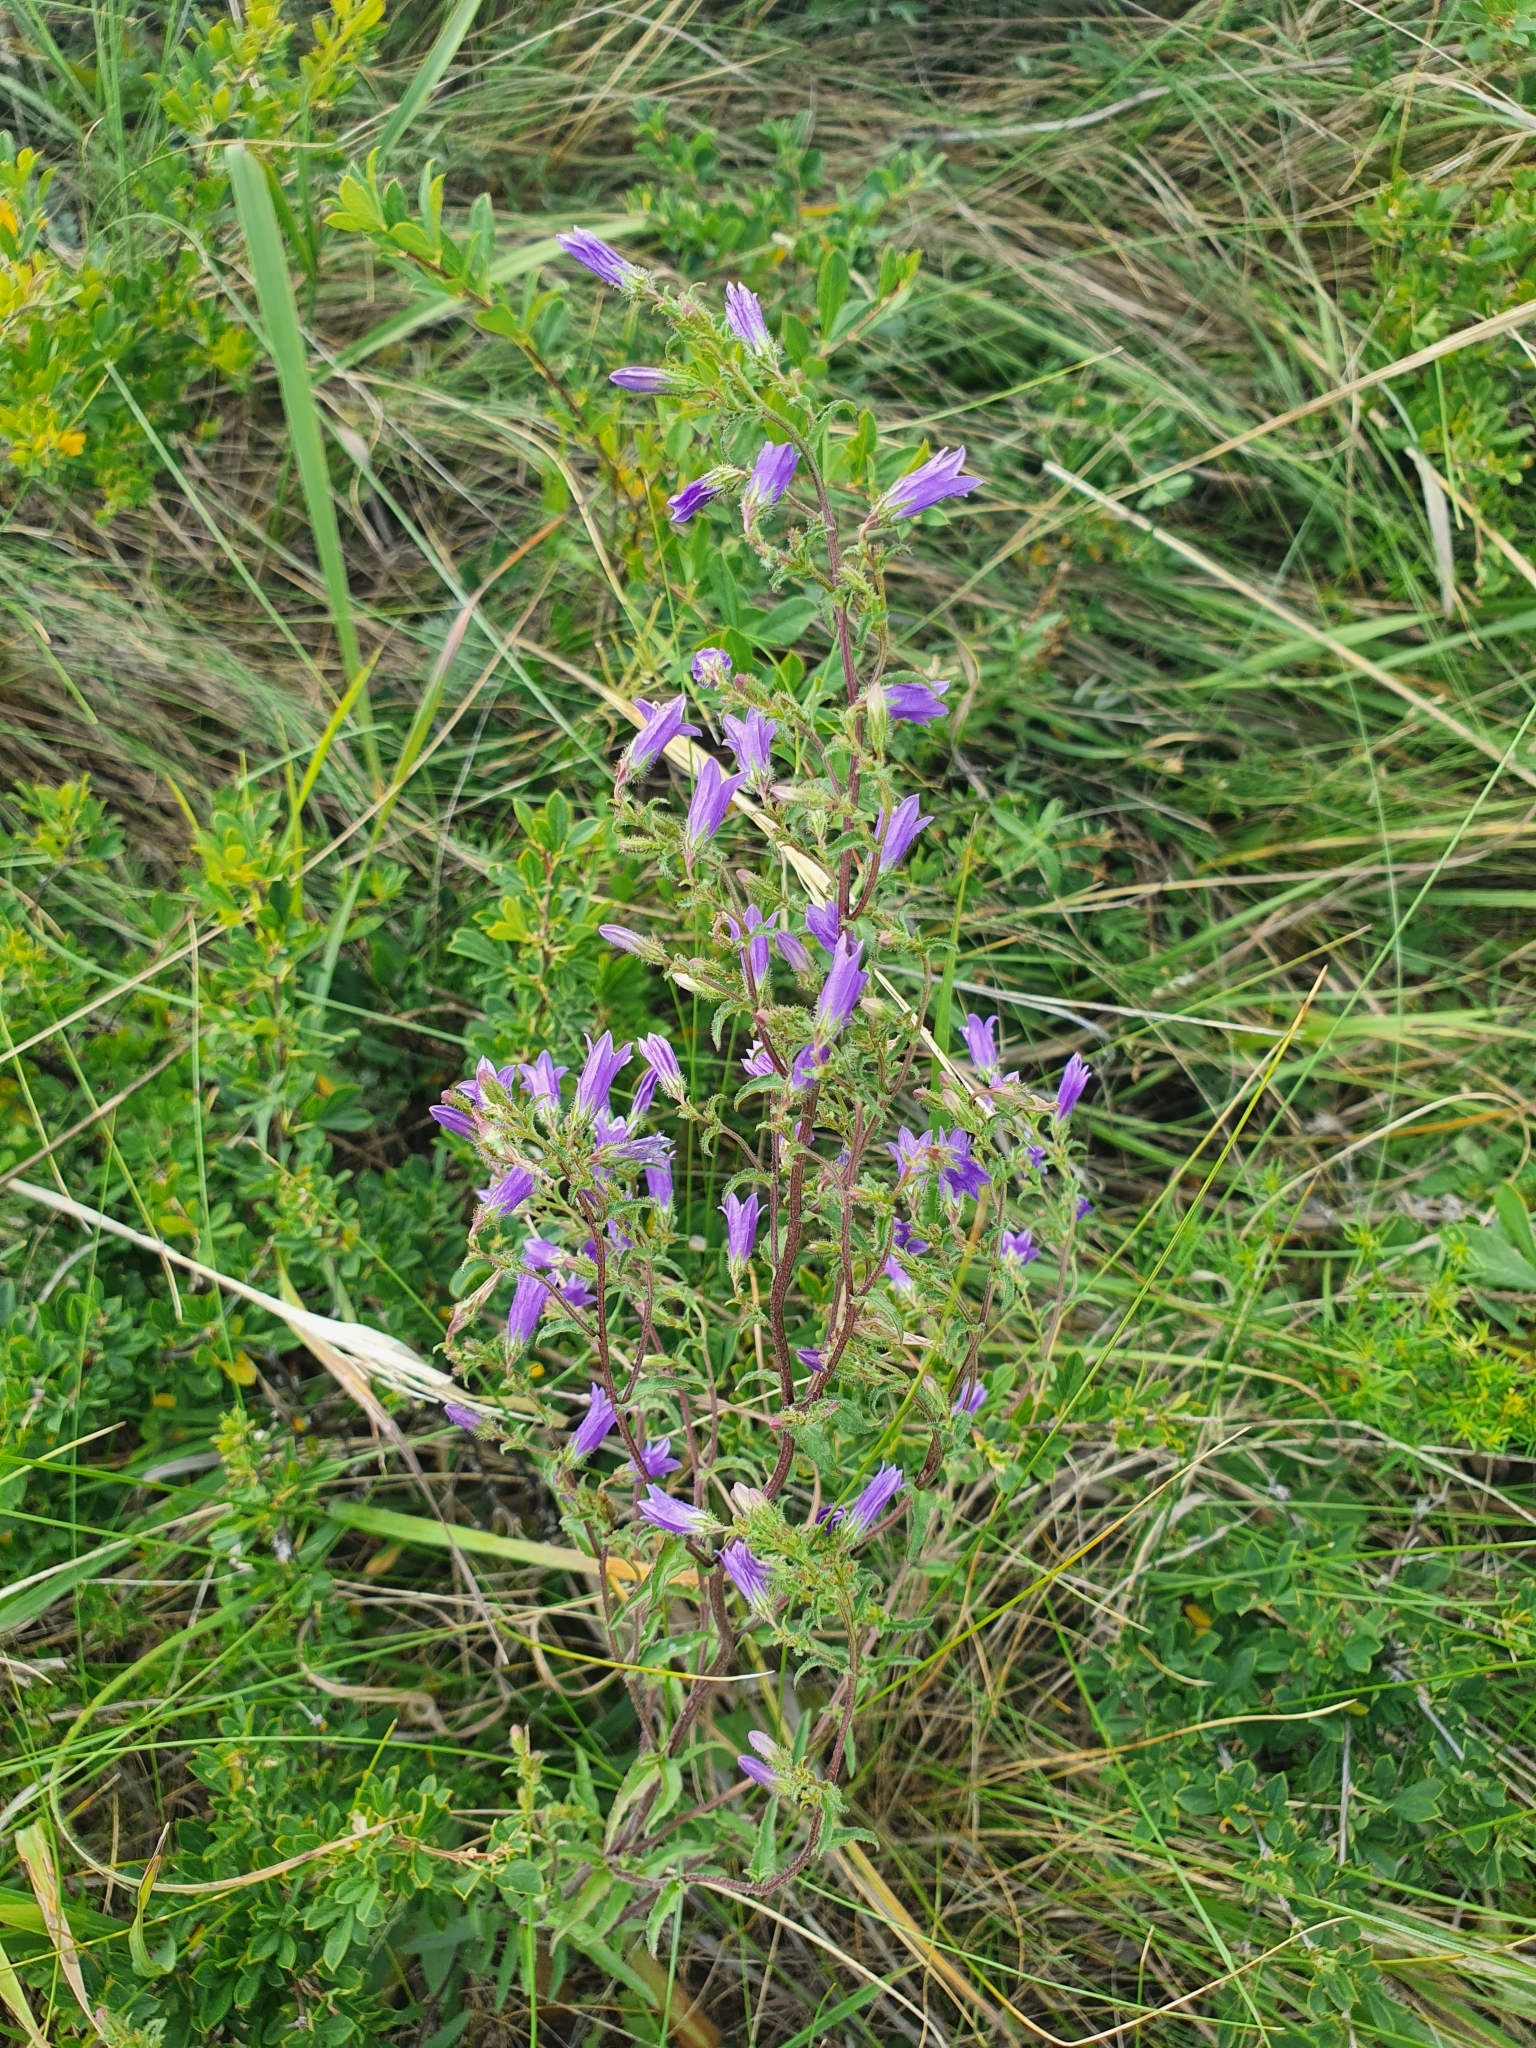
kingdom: Plantae
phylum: Tracheophyta
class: Magnoliopsida
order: Asterales
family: Campanulaceae
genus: Campanula
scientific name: Campanula sibirica
